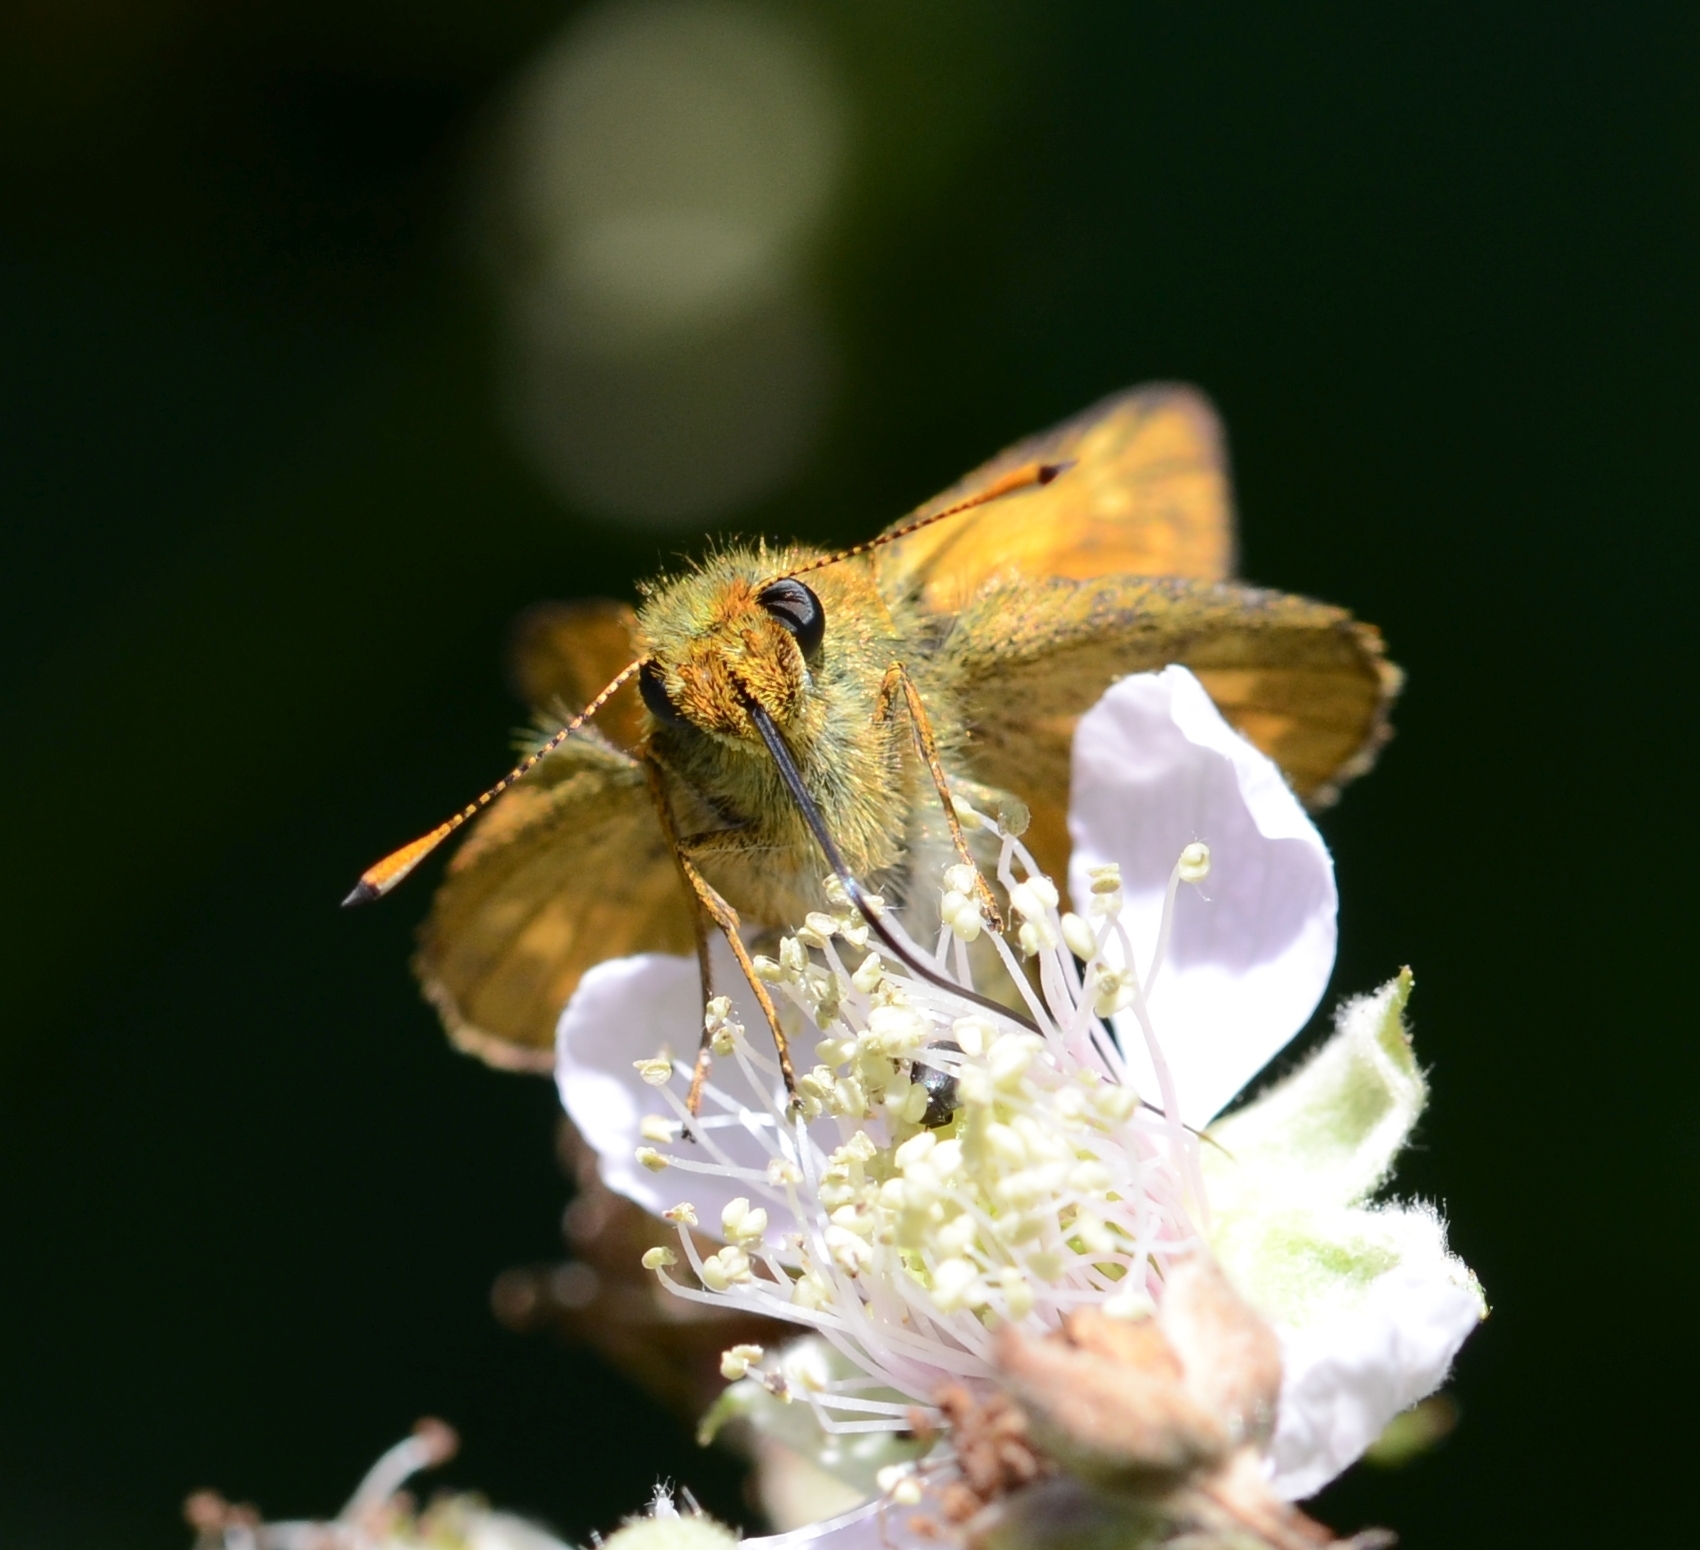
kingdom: Animalia
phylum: Arthropoda
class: Insecta
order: Lepidoptera
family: Hesperiidae
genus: Ochlodes
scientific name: Ochlodes venata
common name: Large skipper
